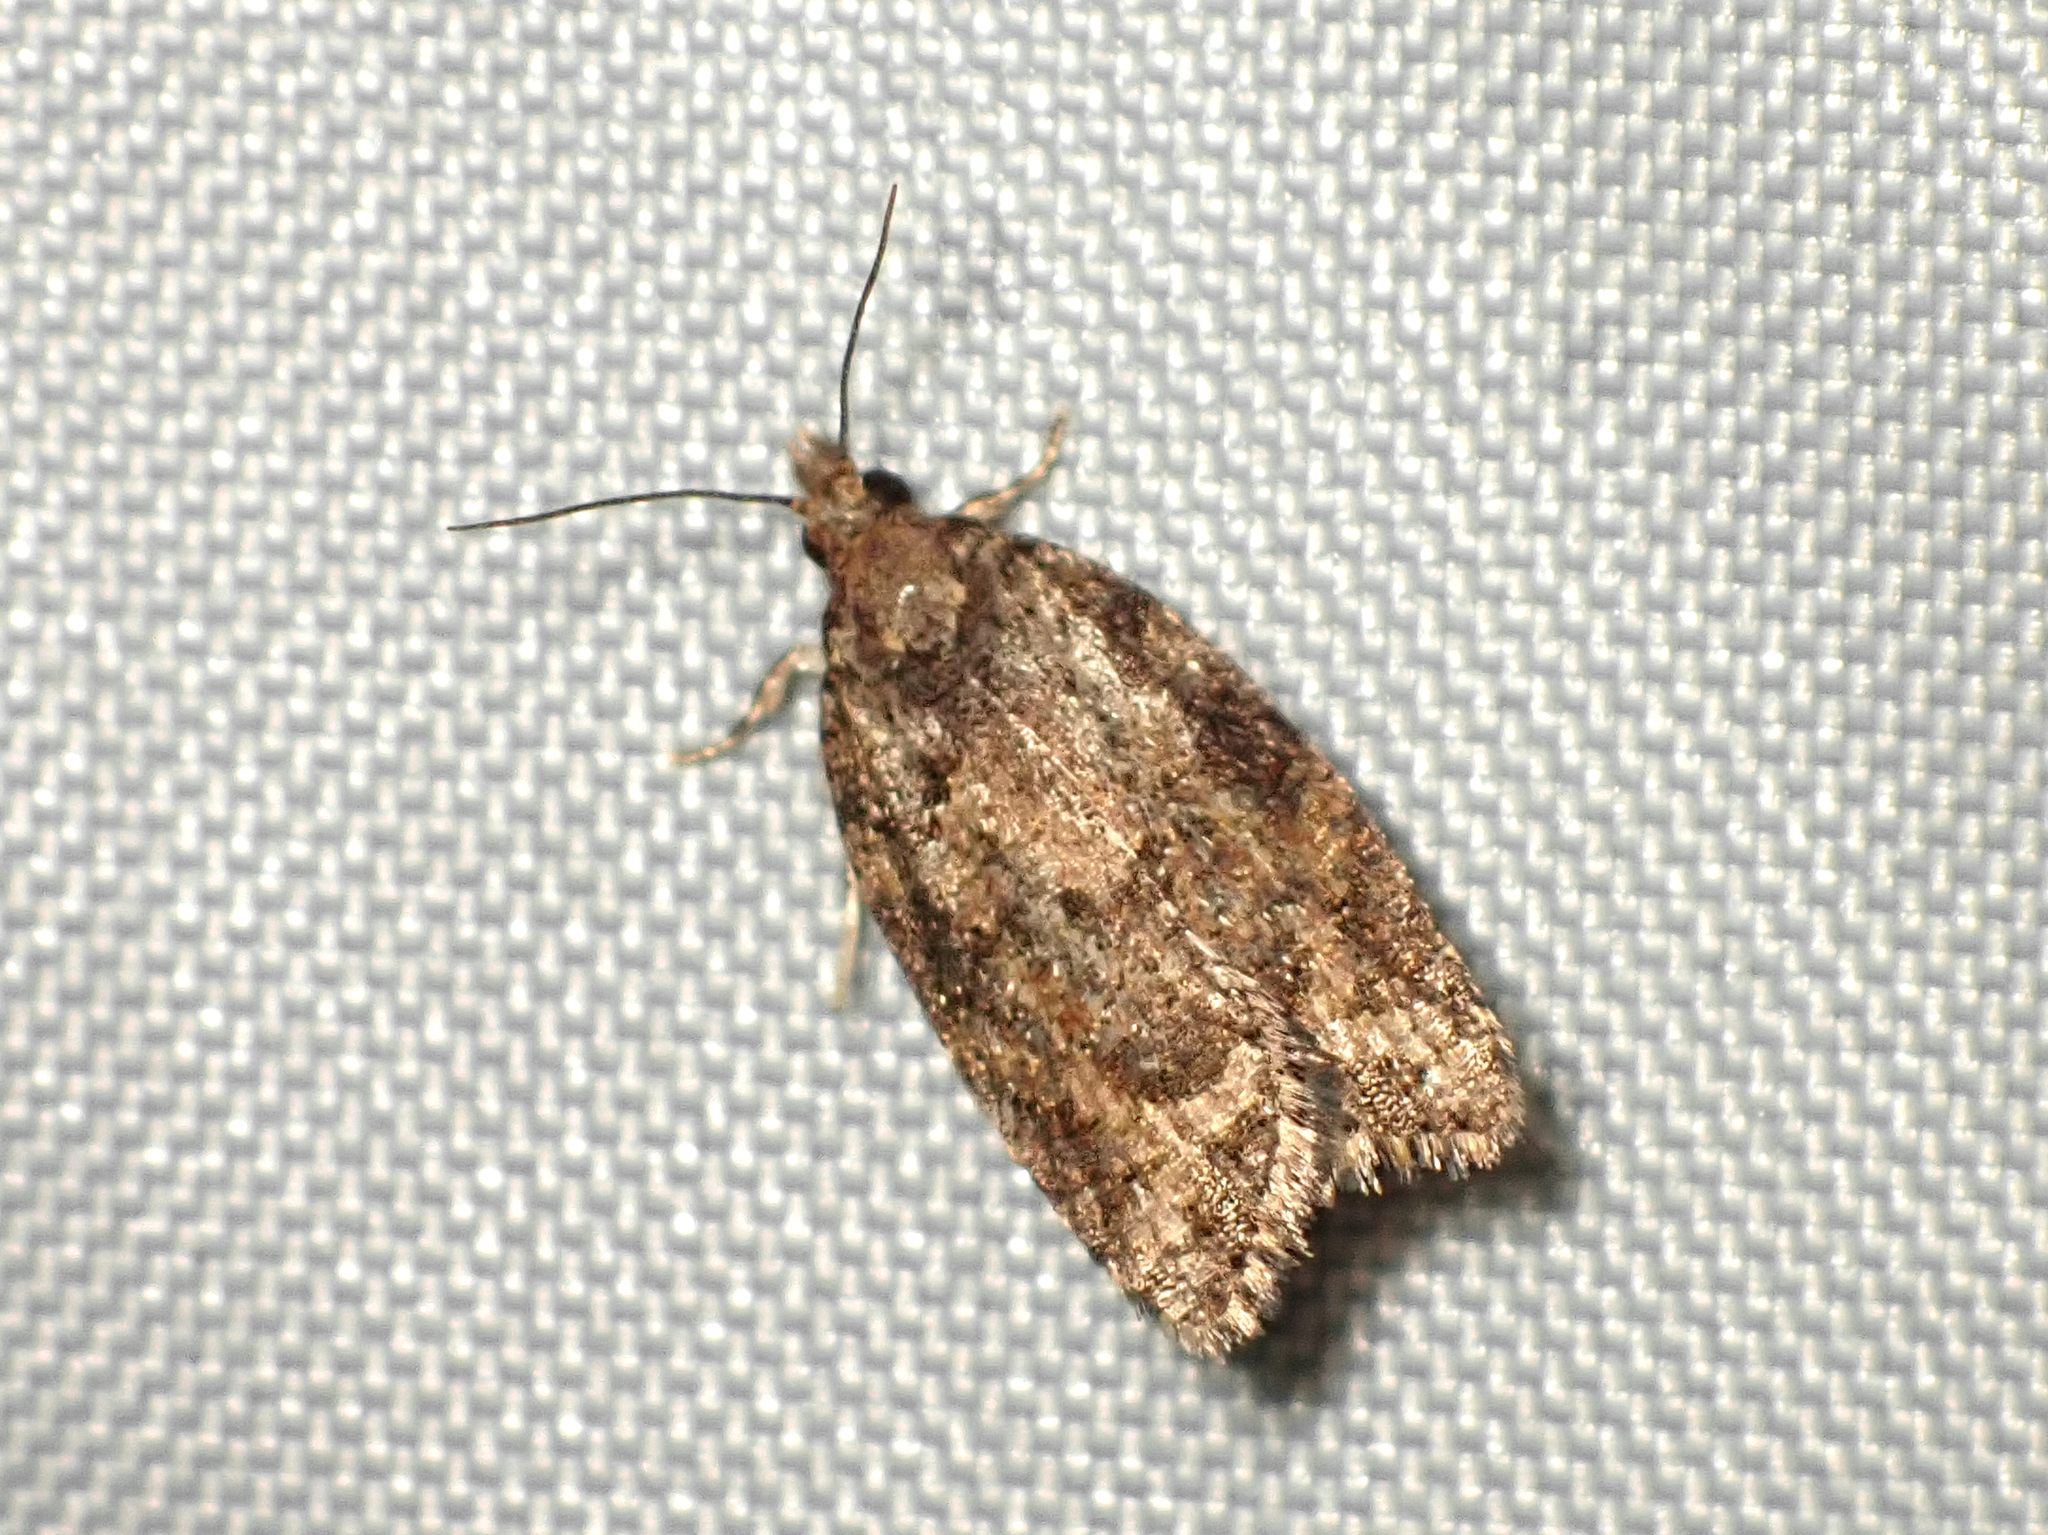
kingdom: Animalia
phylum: Arthropoda
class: Insecta
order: Lepidoptera
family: Tortricidae
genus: Capua
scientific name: Capua intractana
